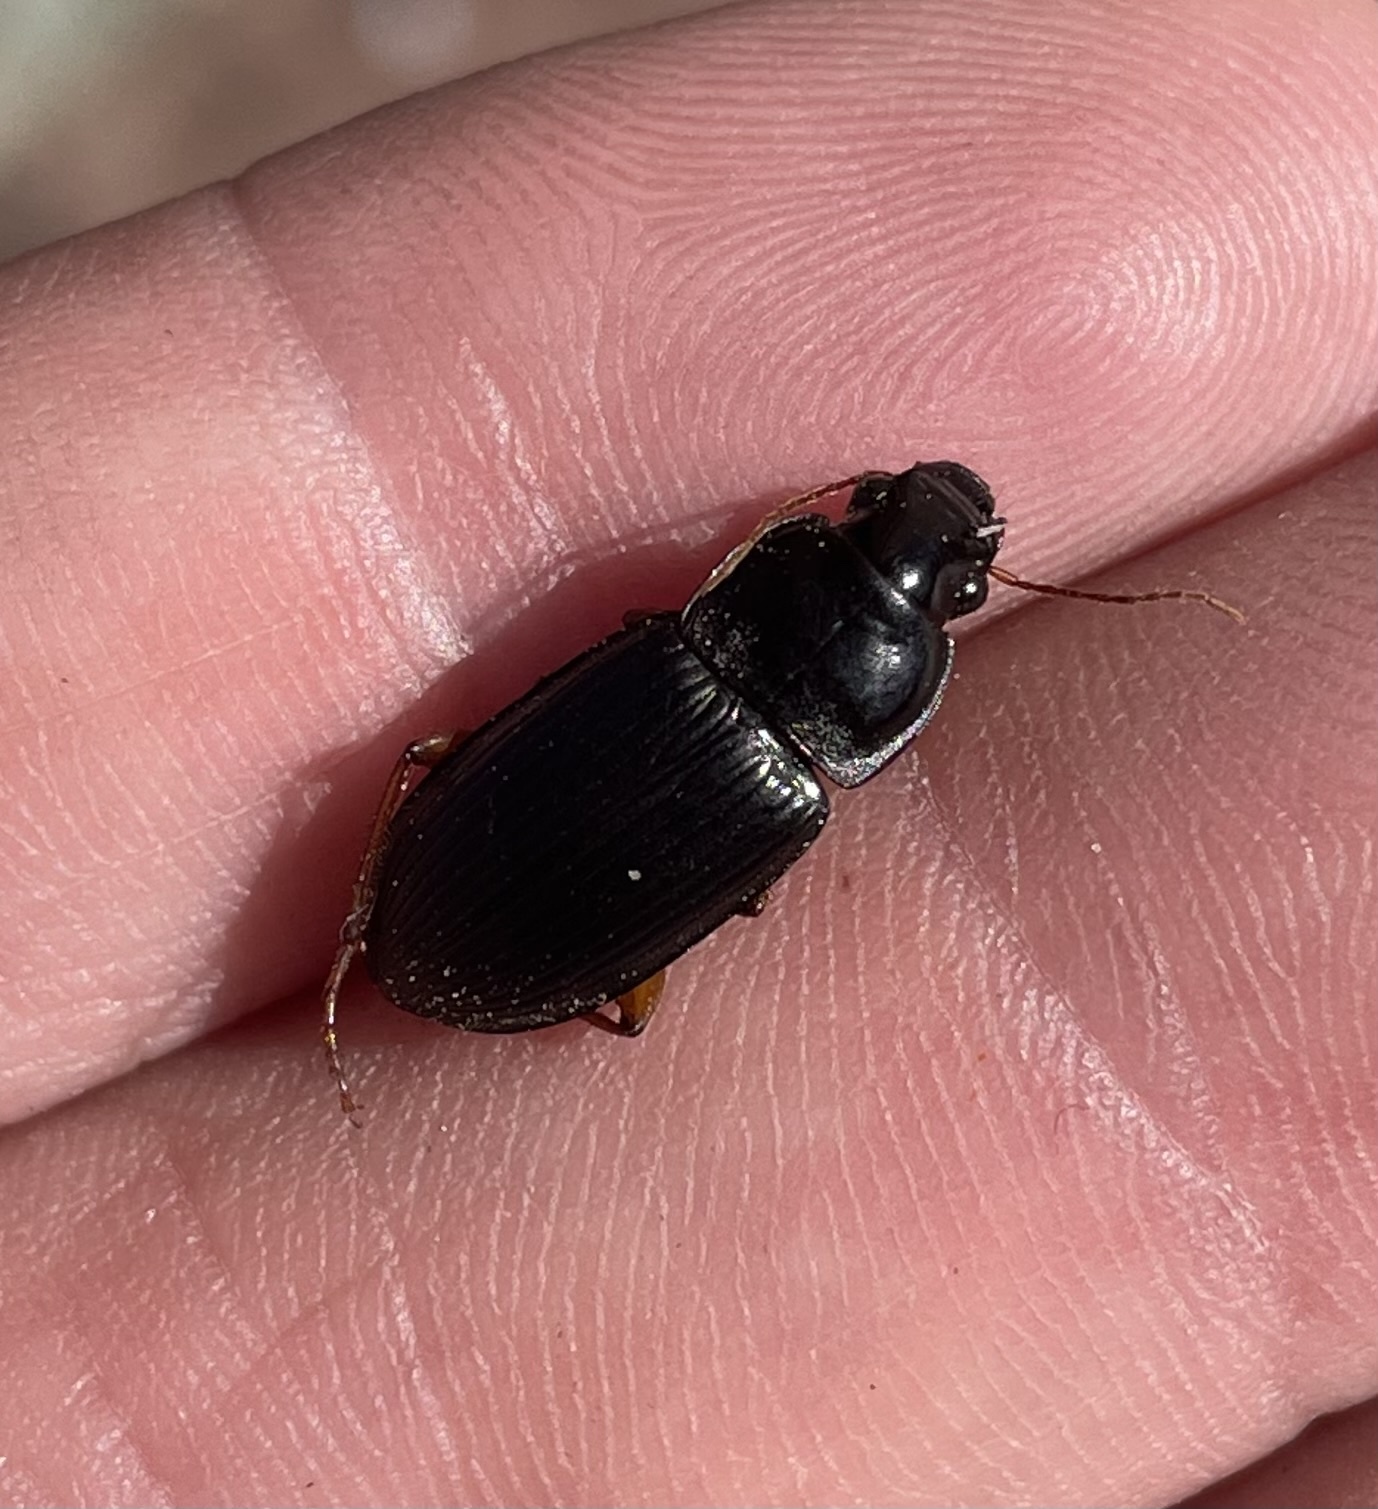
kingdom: Animalia
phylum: Arthropoda
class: Insecta
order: Coleoptera
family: Carabidae
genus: Harpalus
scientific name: Harpalus pensylvanicus
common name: Pennsylvania dingy ground beetle
